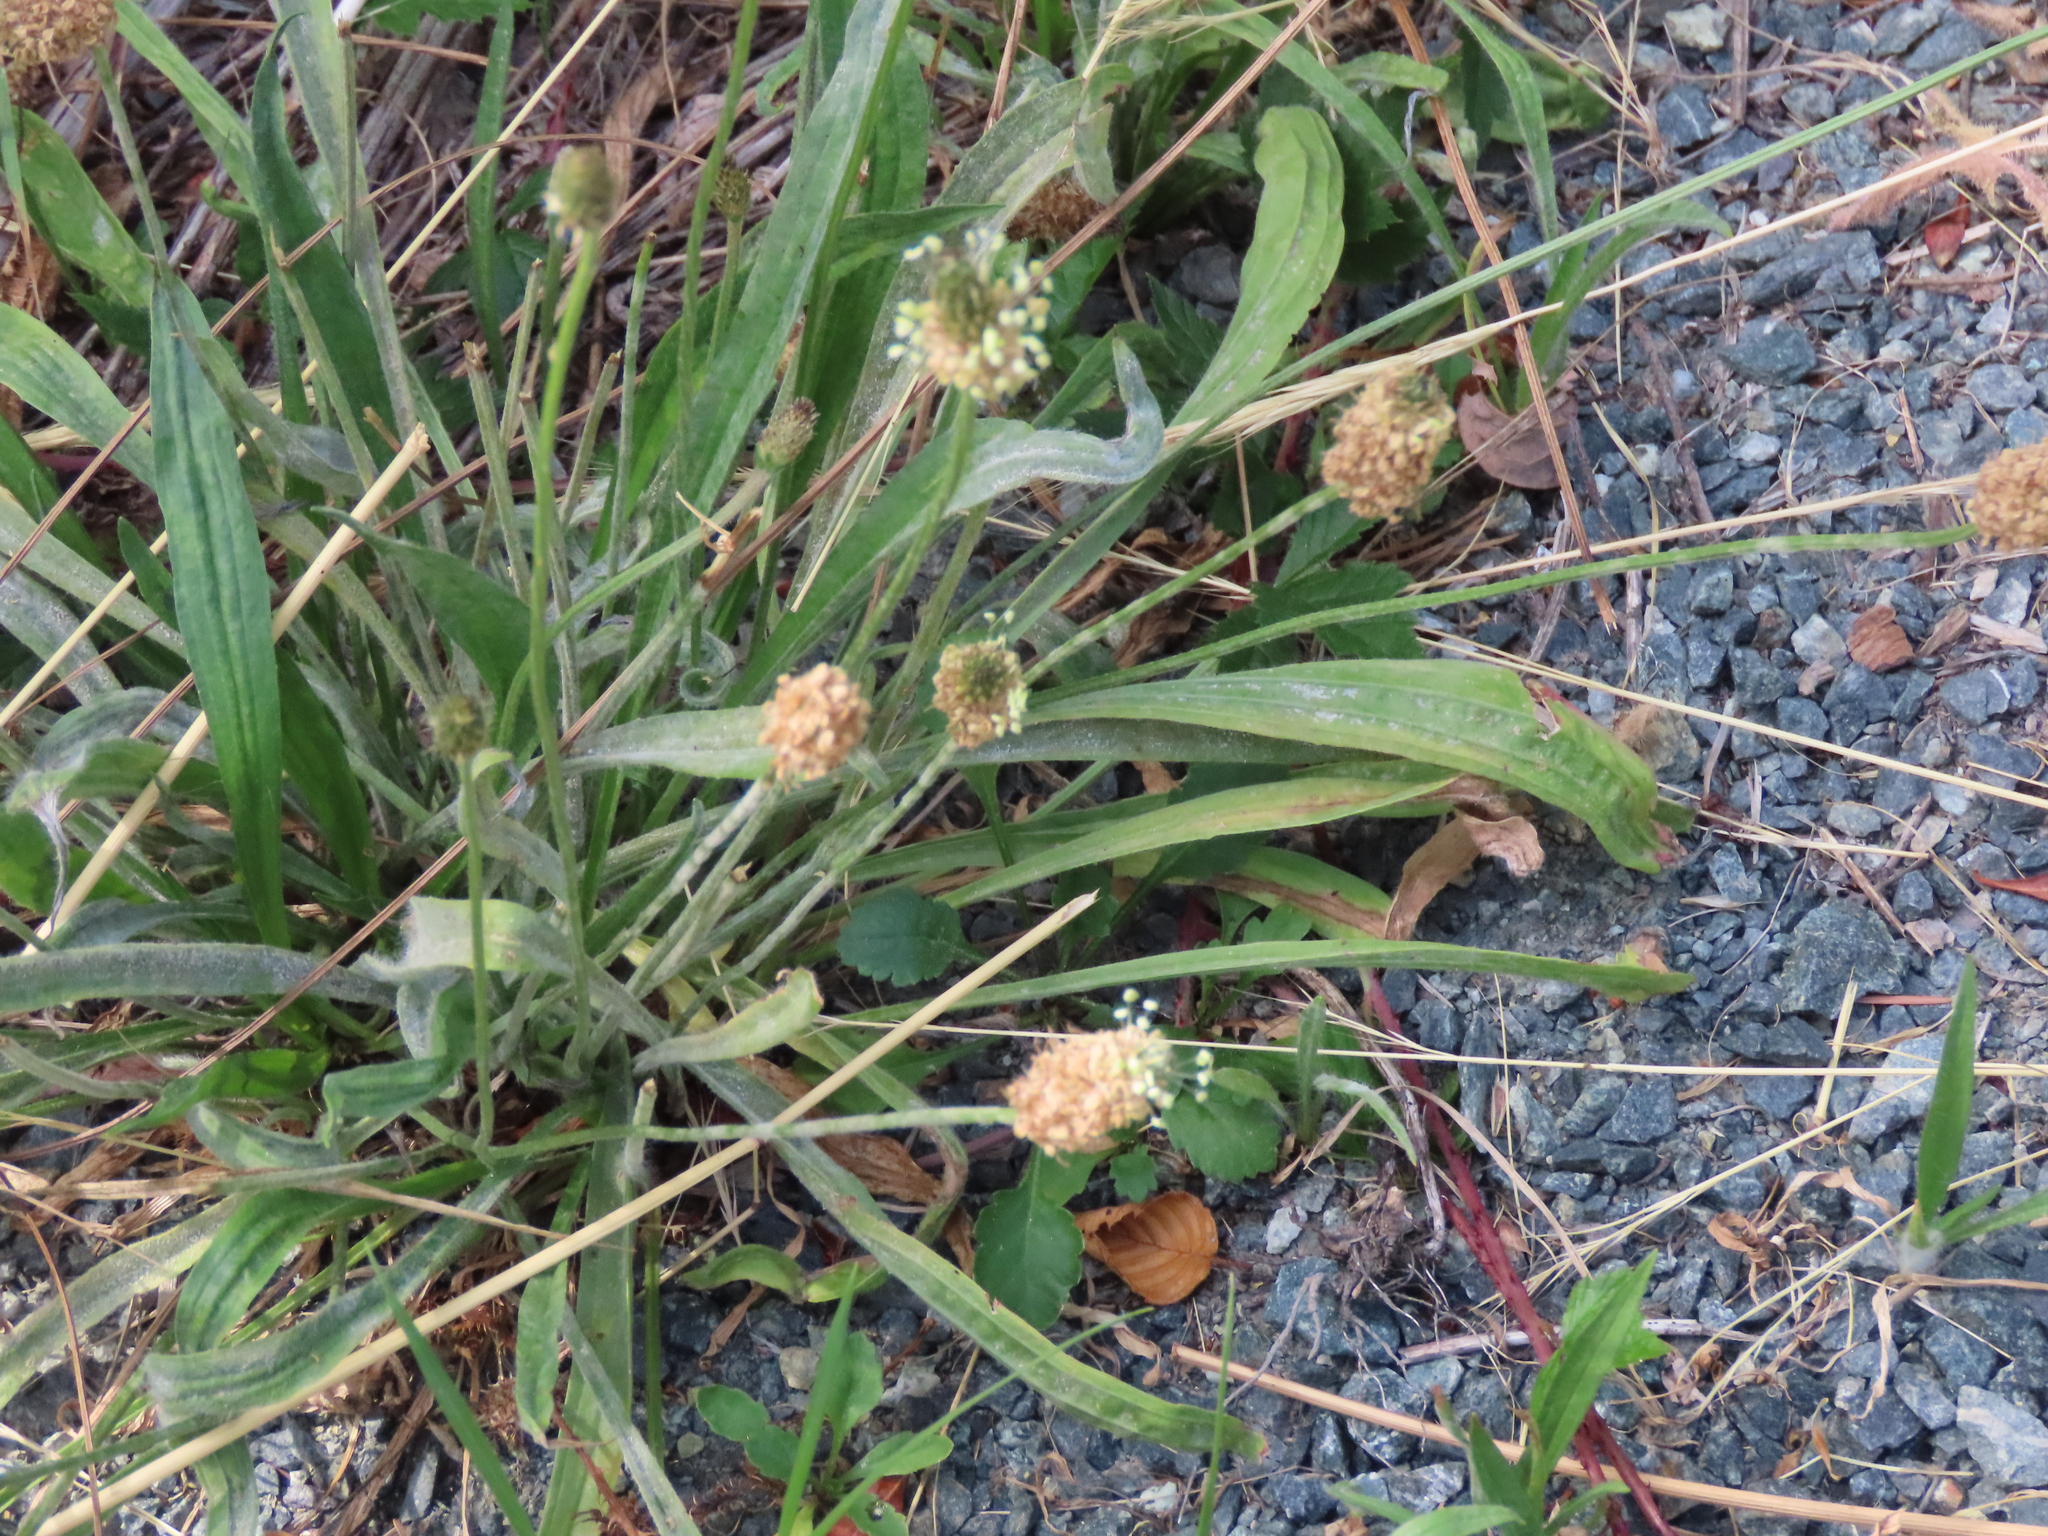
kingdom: Plantae
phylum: Tracheophyta
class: Magnoliopsida
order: Lamiales
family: Plantaginaceae
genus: Plantago
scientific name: Plantago lanceolata
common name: Ribwort plantain
